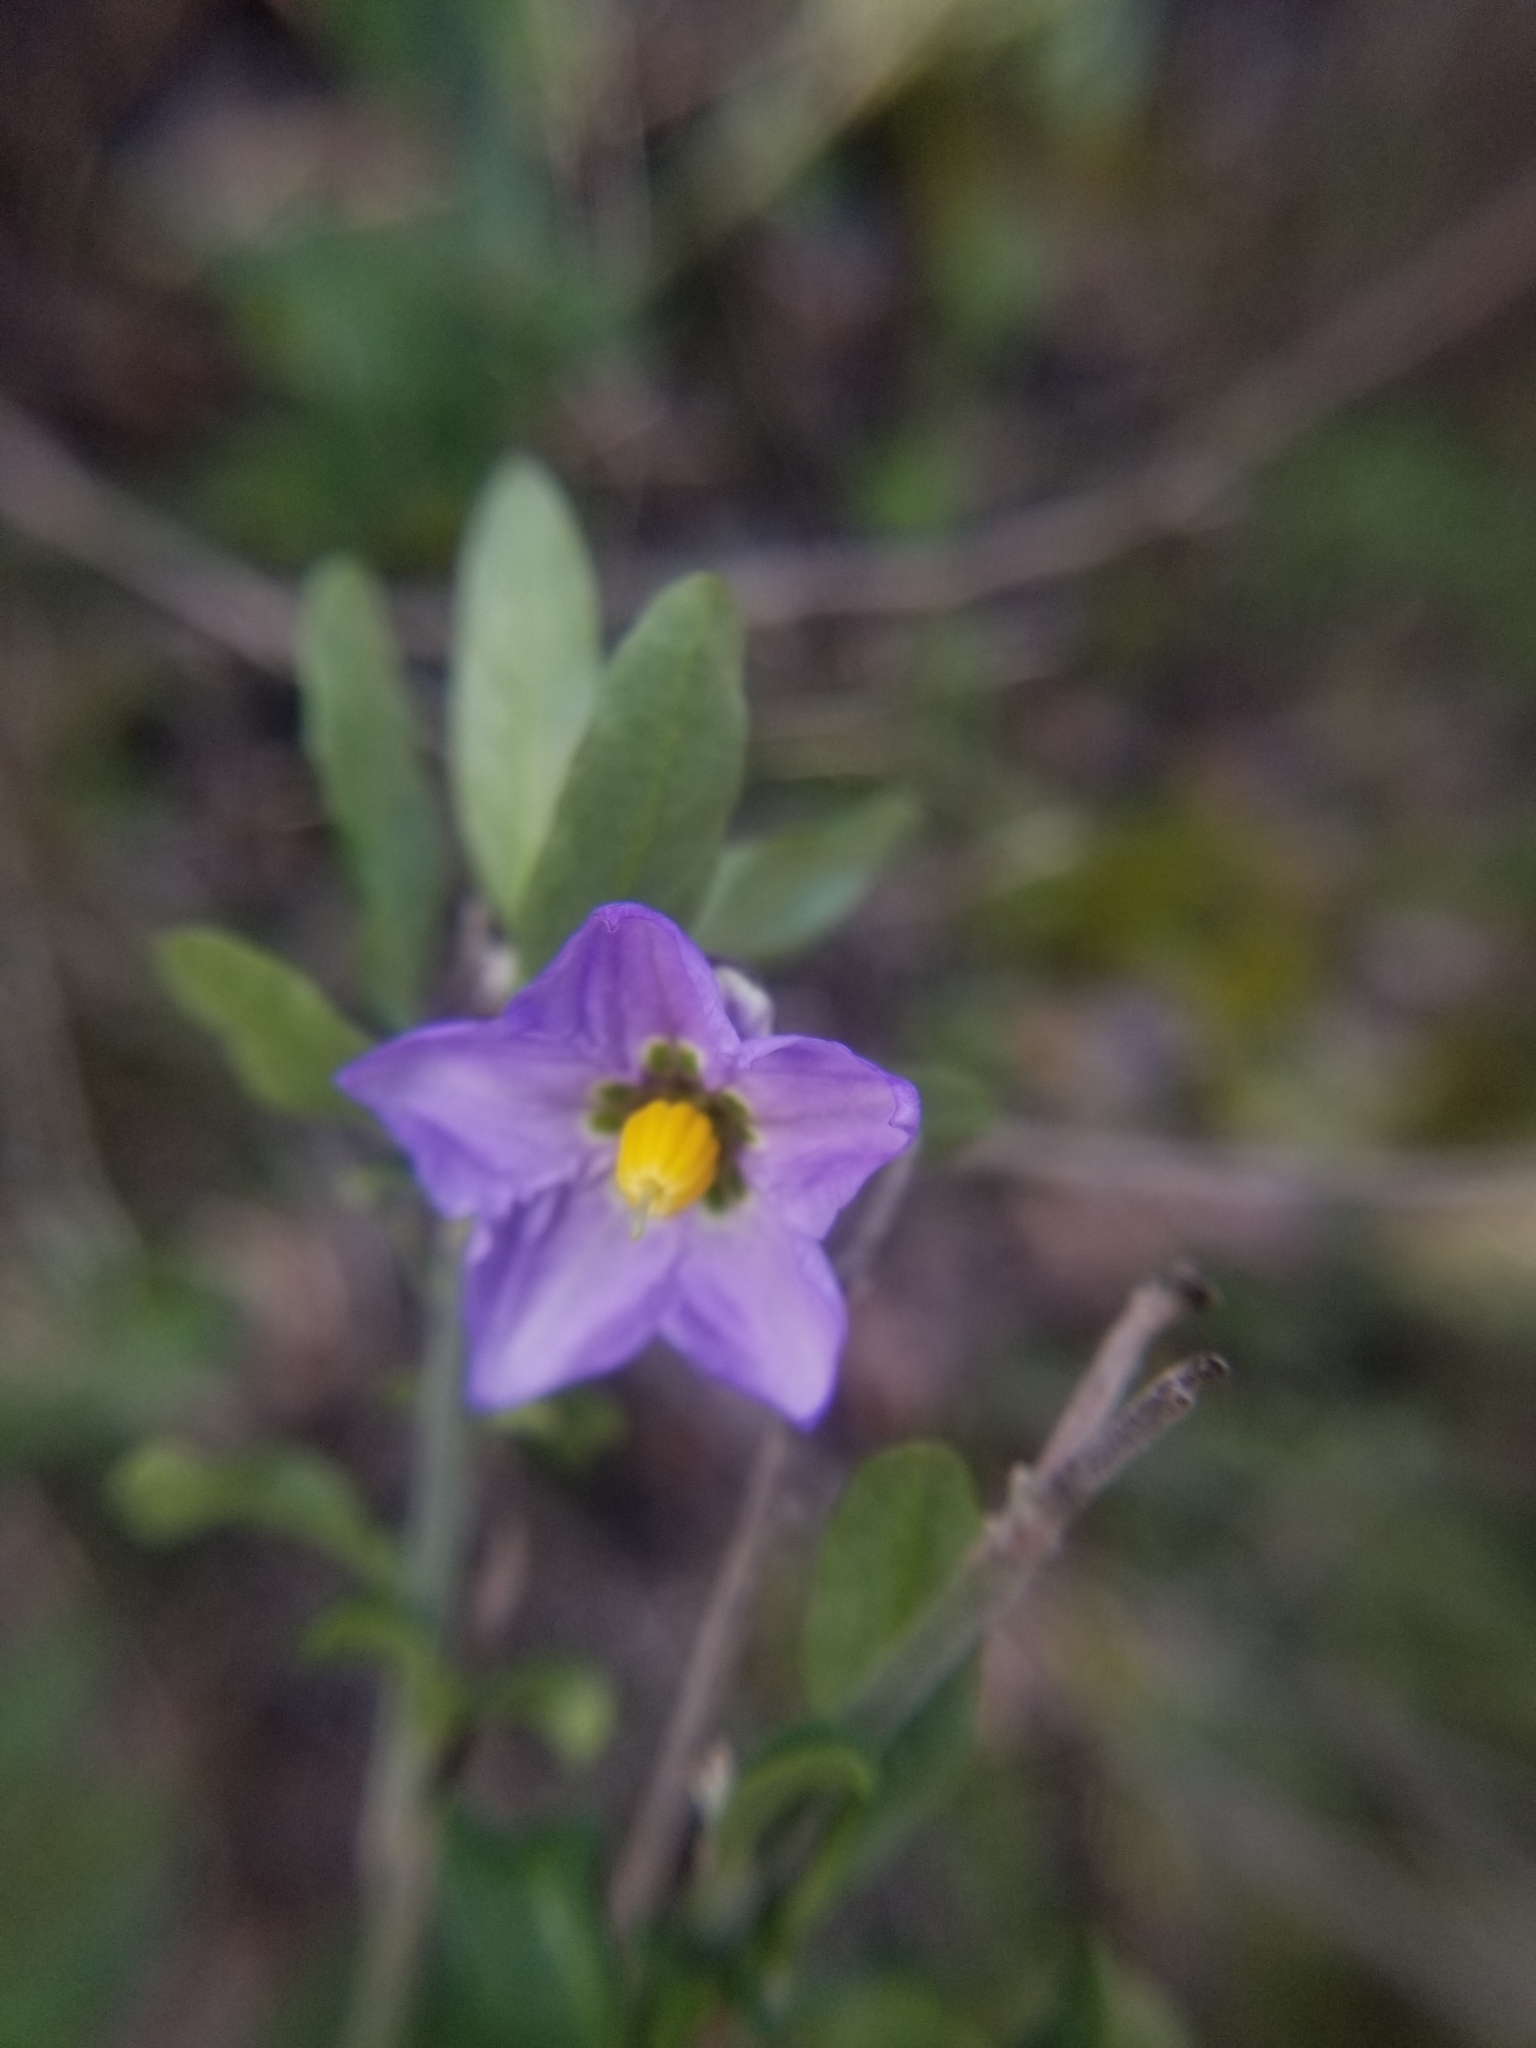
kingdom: Plantae
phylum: Tracheophyta
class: Magnoliopsida
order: Solanales
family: Solanaceae
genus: Solanum
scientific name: Solanum umbelliferum
